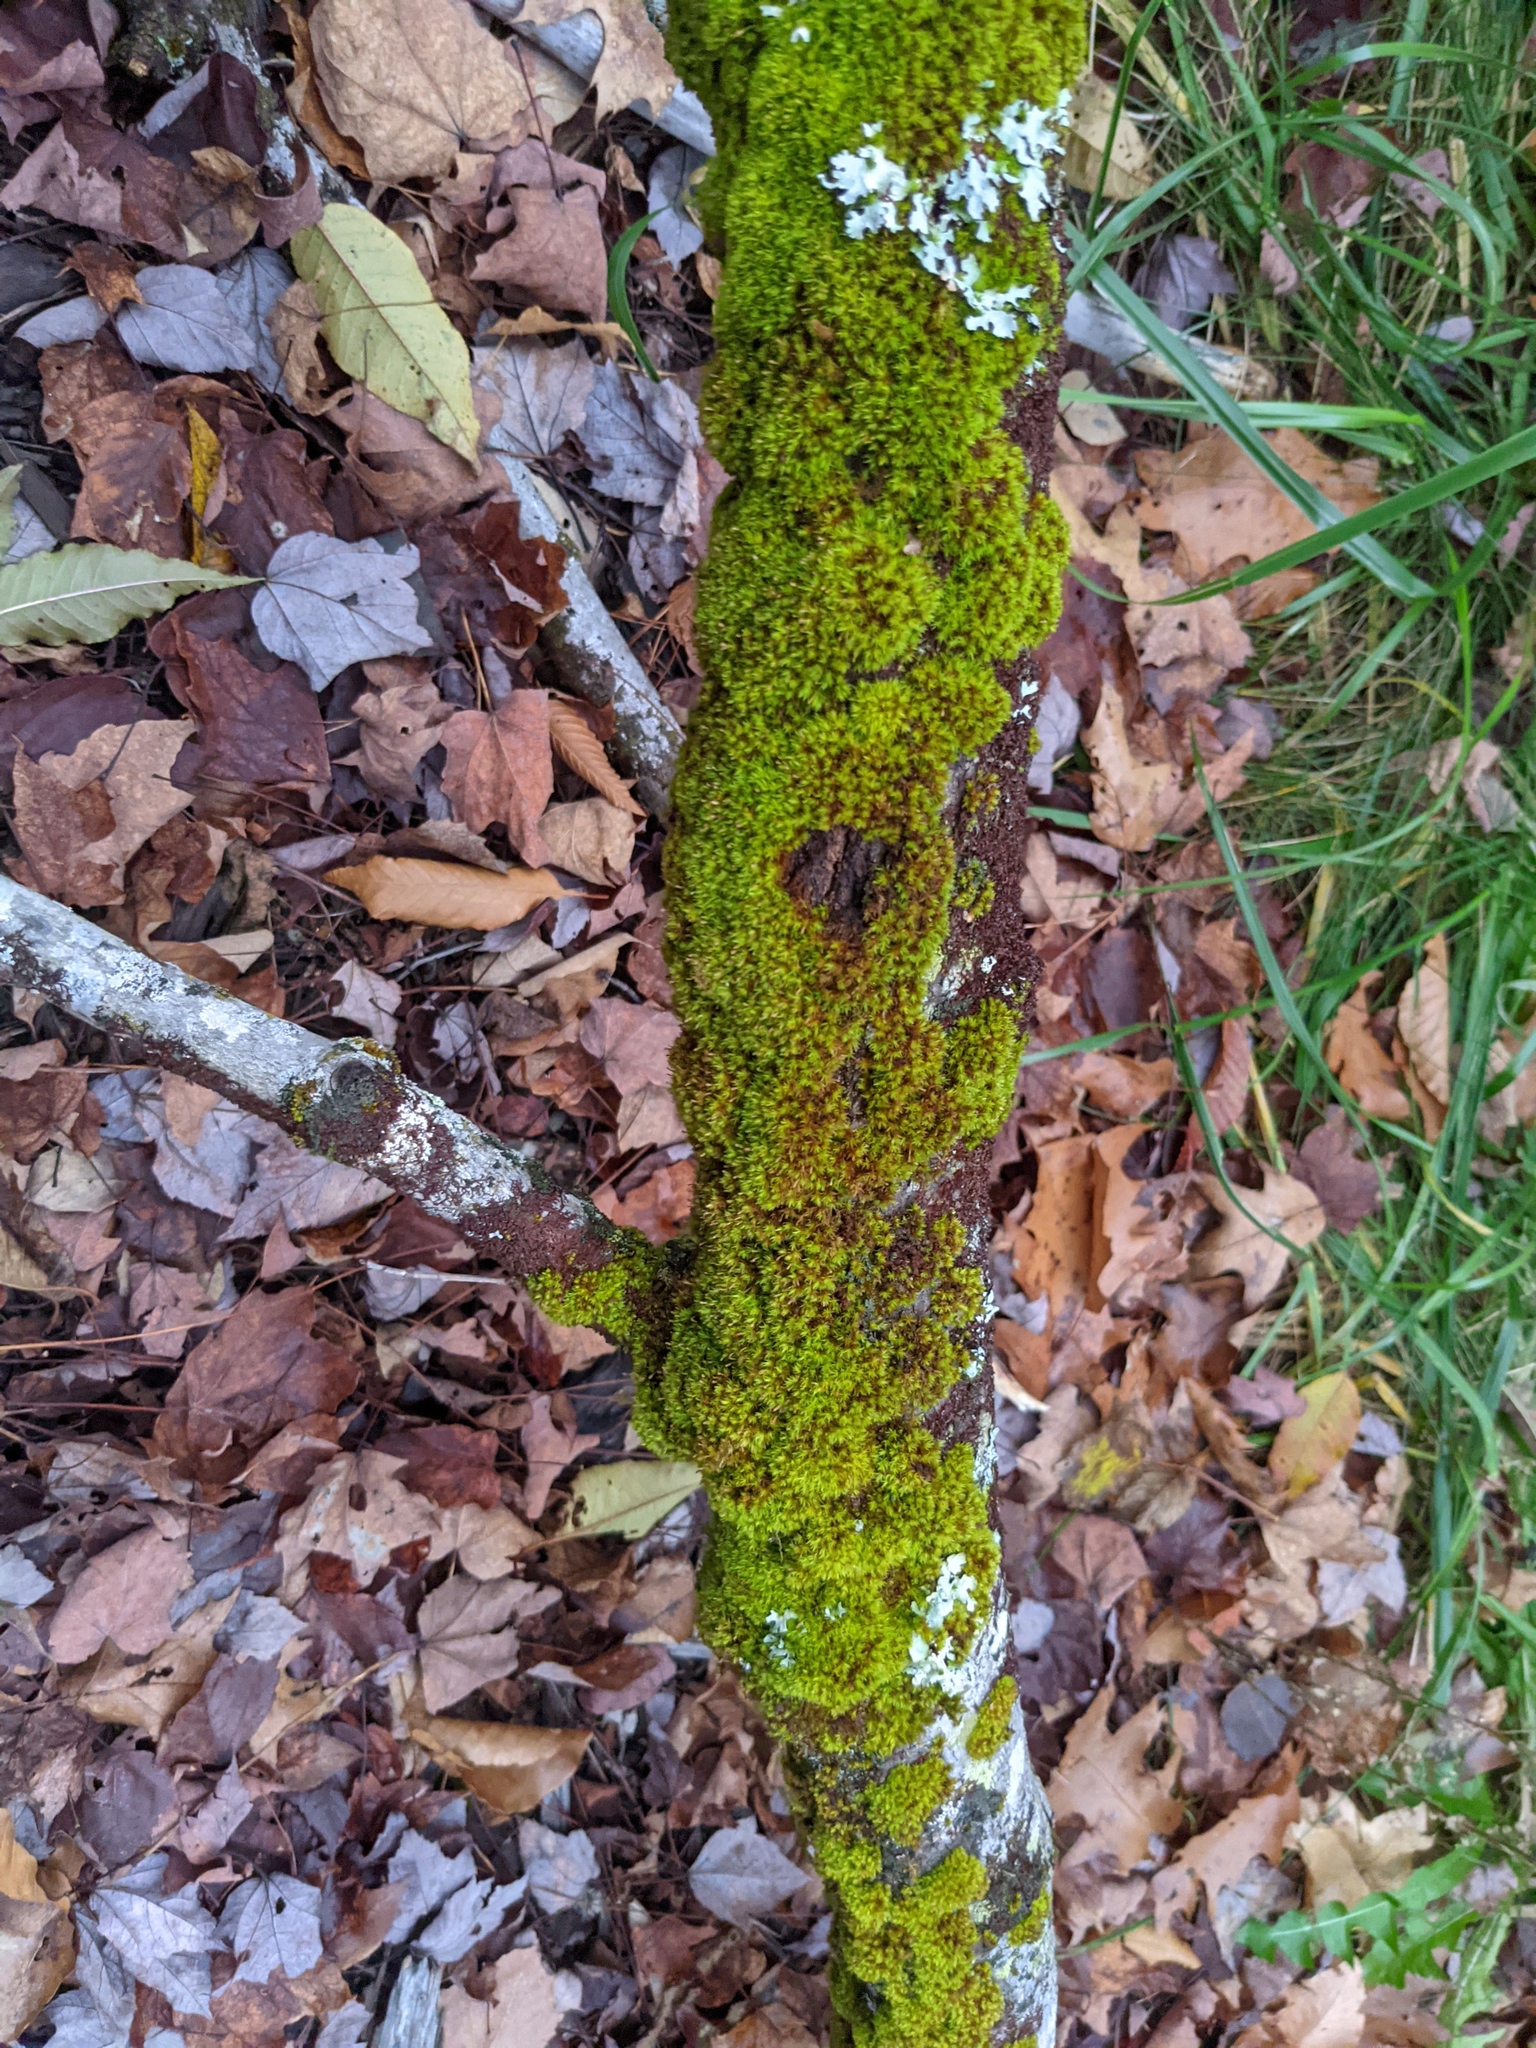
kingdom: Plantae
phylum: Bryophyta
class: Bryopsida
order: Orthotrichales
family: Orthotrichaceae
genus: Ulota
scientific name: Ulota crispa
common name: Crisped pincushion moss
